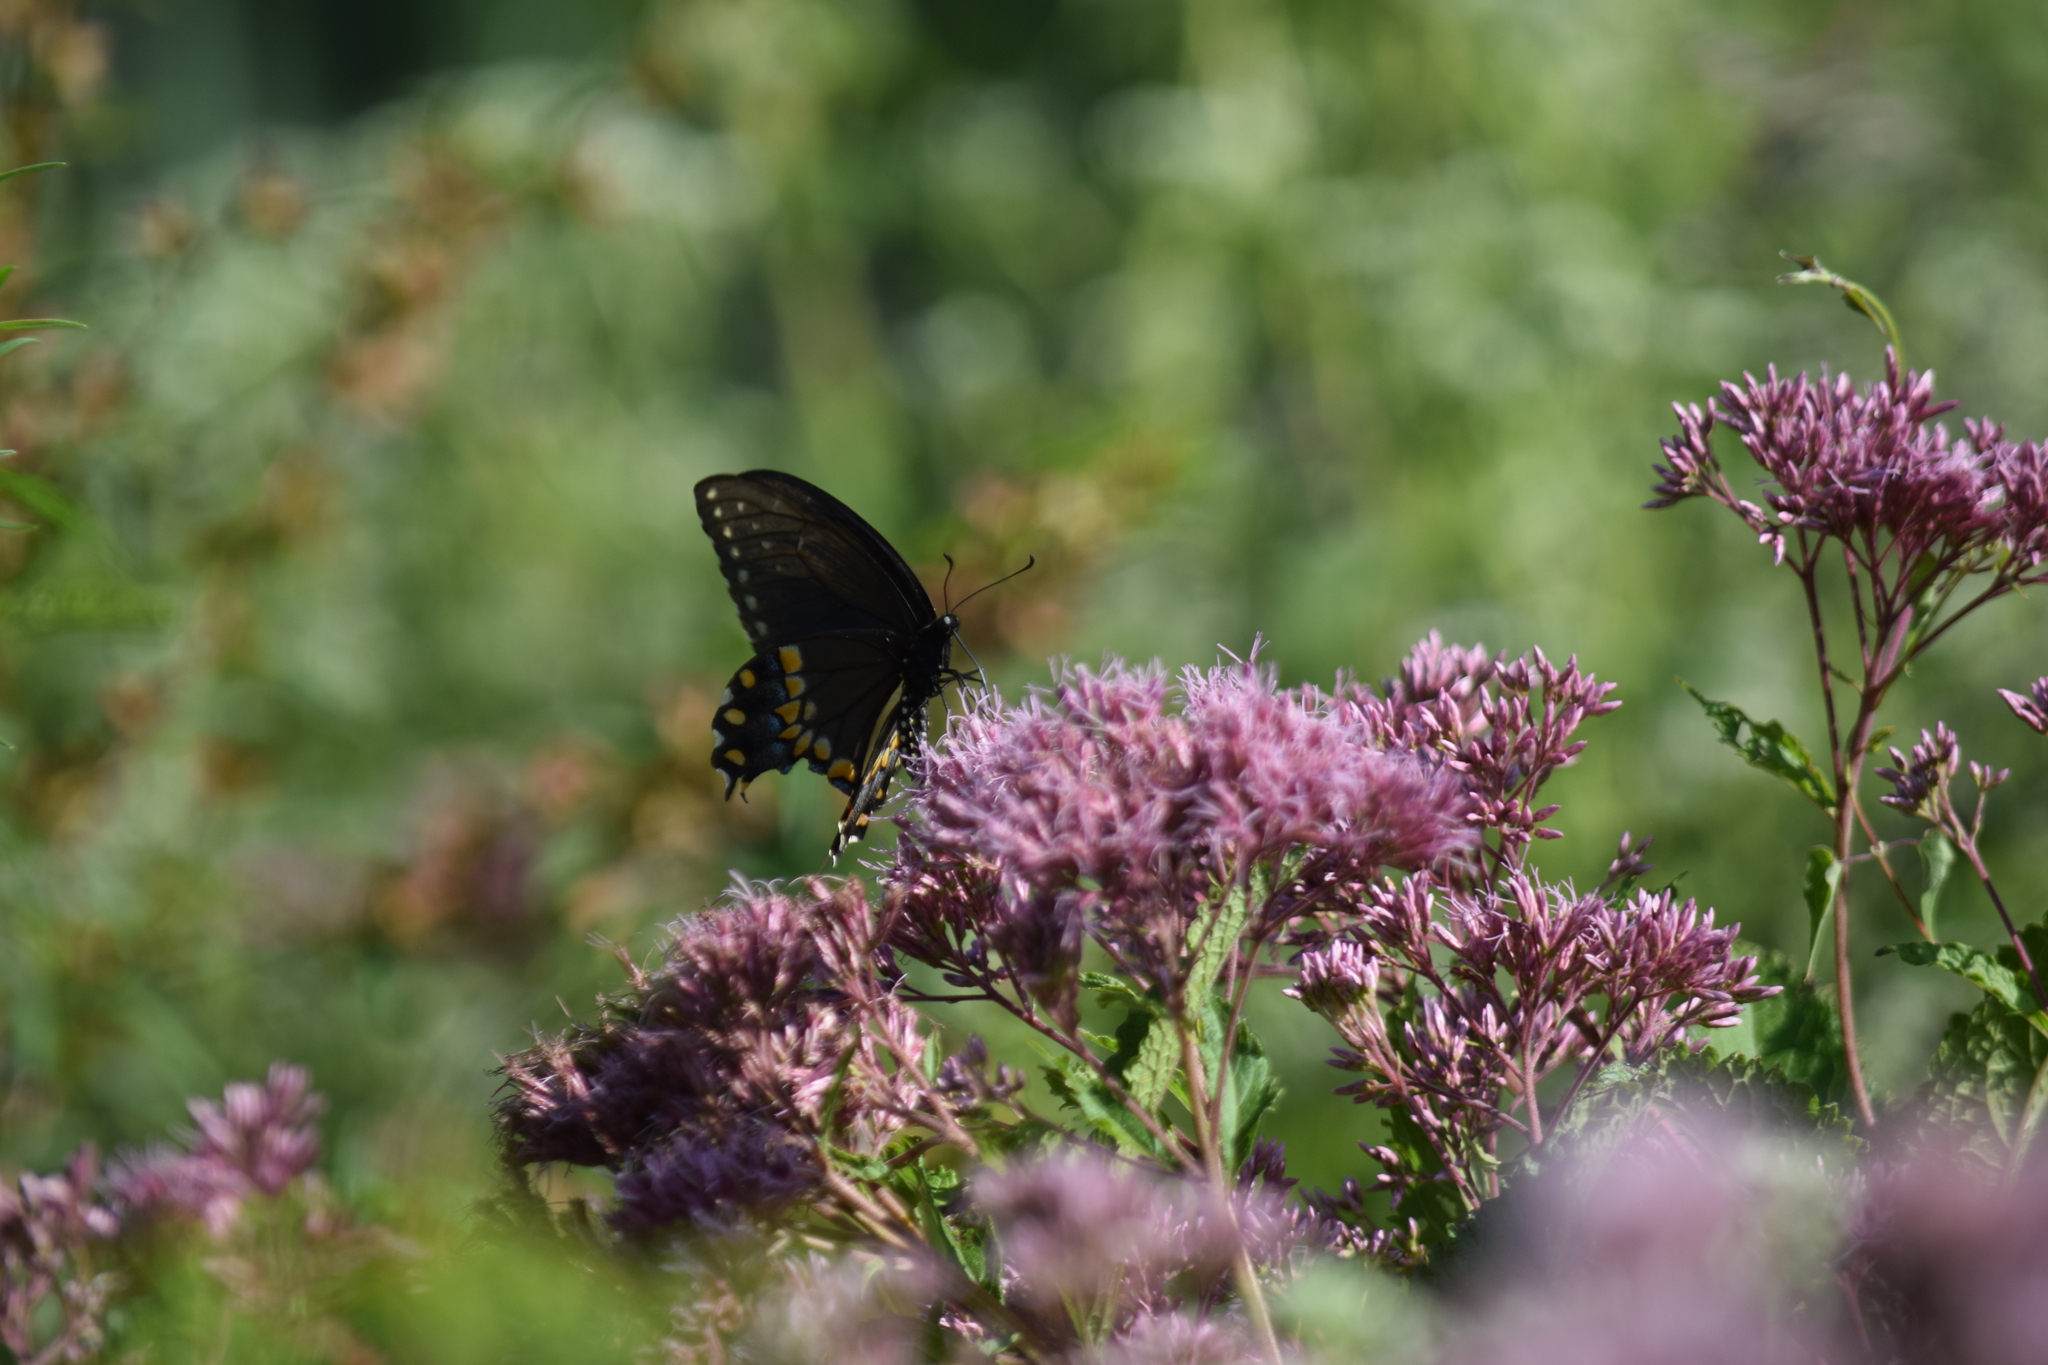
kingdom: Animalia
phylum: Arthropoda
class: Insecta
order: Lepidoptera
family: Papilionidae
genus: Papilio
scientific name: Papilio polyxenes
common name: Black swallowtail
